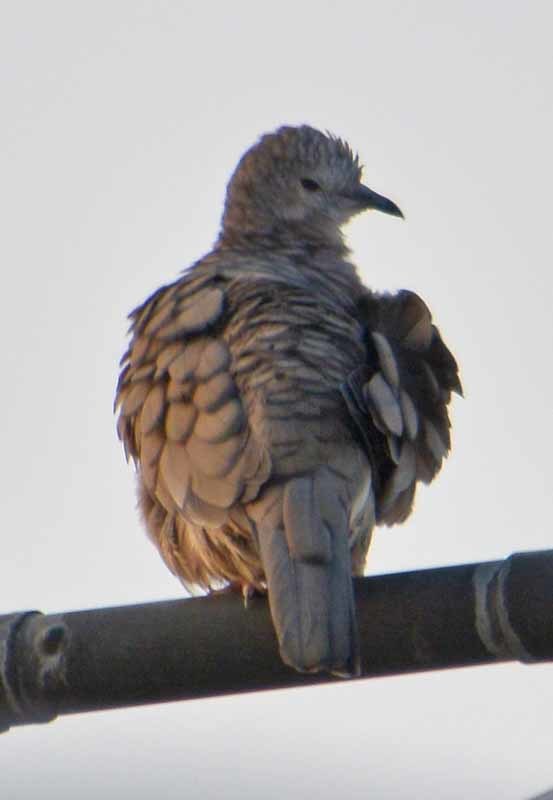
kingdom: Animalia
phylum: Chordata
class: Aves
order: Columbiformes
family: Columbidae
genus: Columbina
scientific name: Columbina inca
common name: Inca dove
